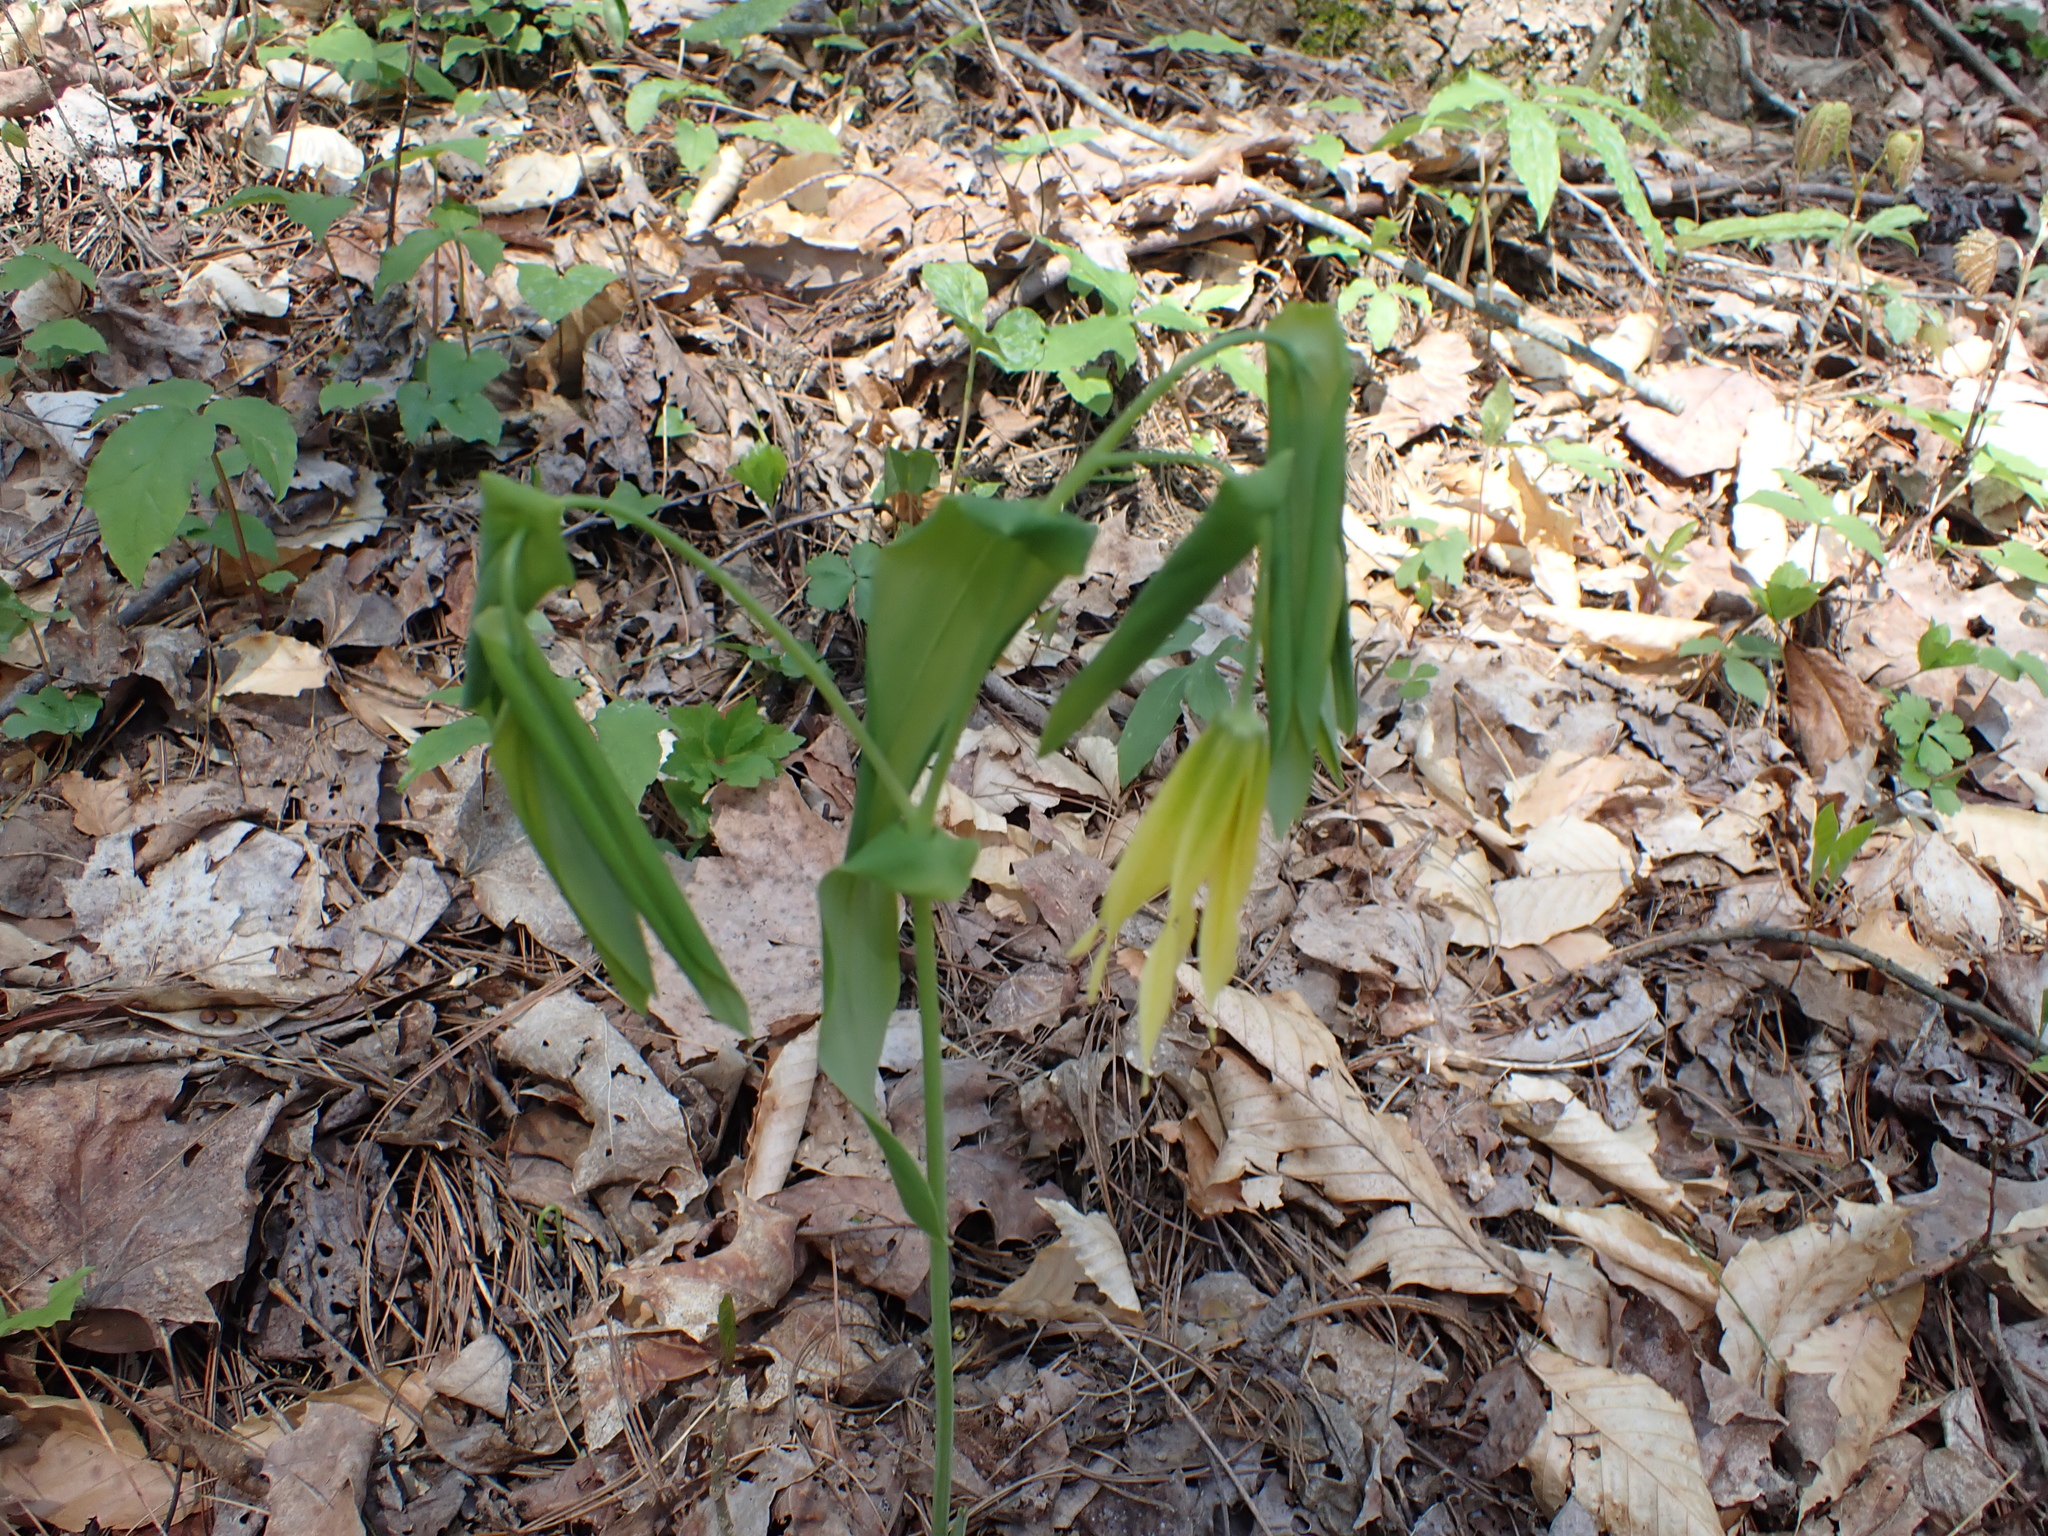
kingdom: Plantae
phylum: Tracheophyta
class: Liliopsida
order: Liliales
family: Colchicaceae
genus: Uvularia
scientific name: Uvularia grandiflora
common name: Bellwort
